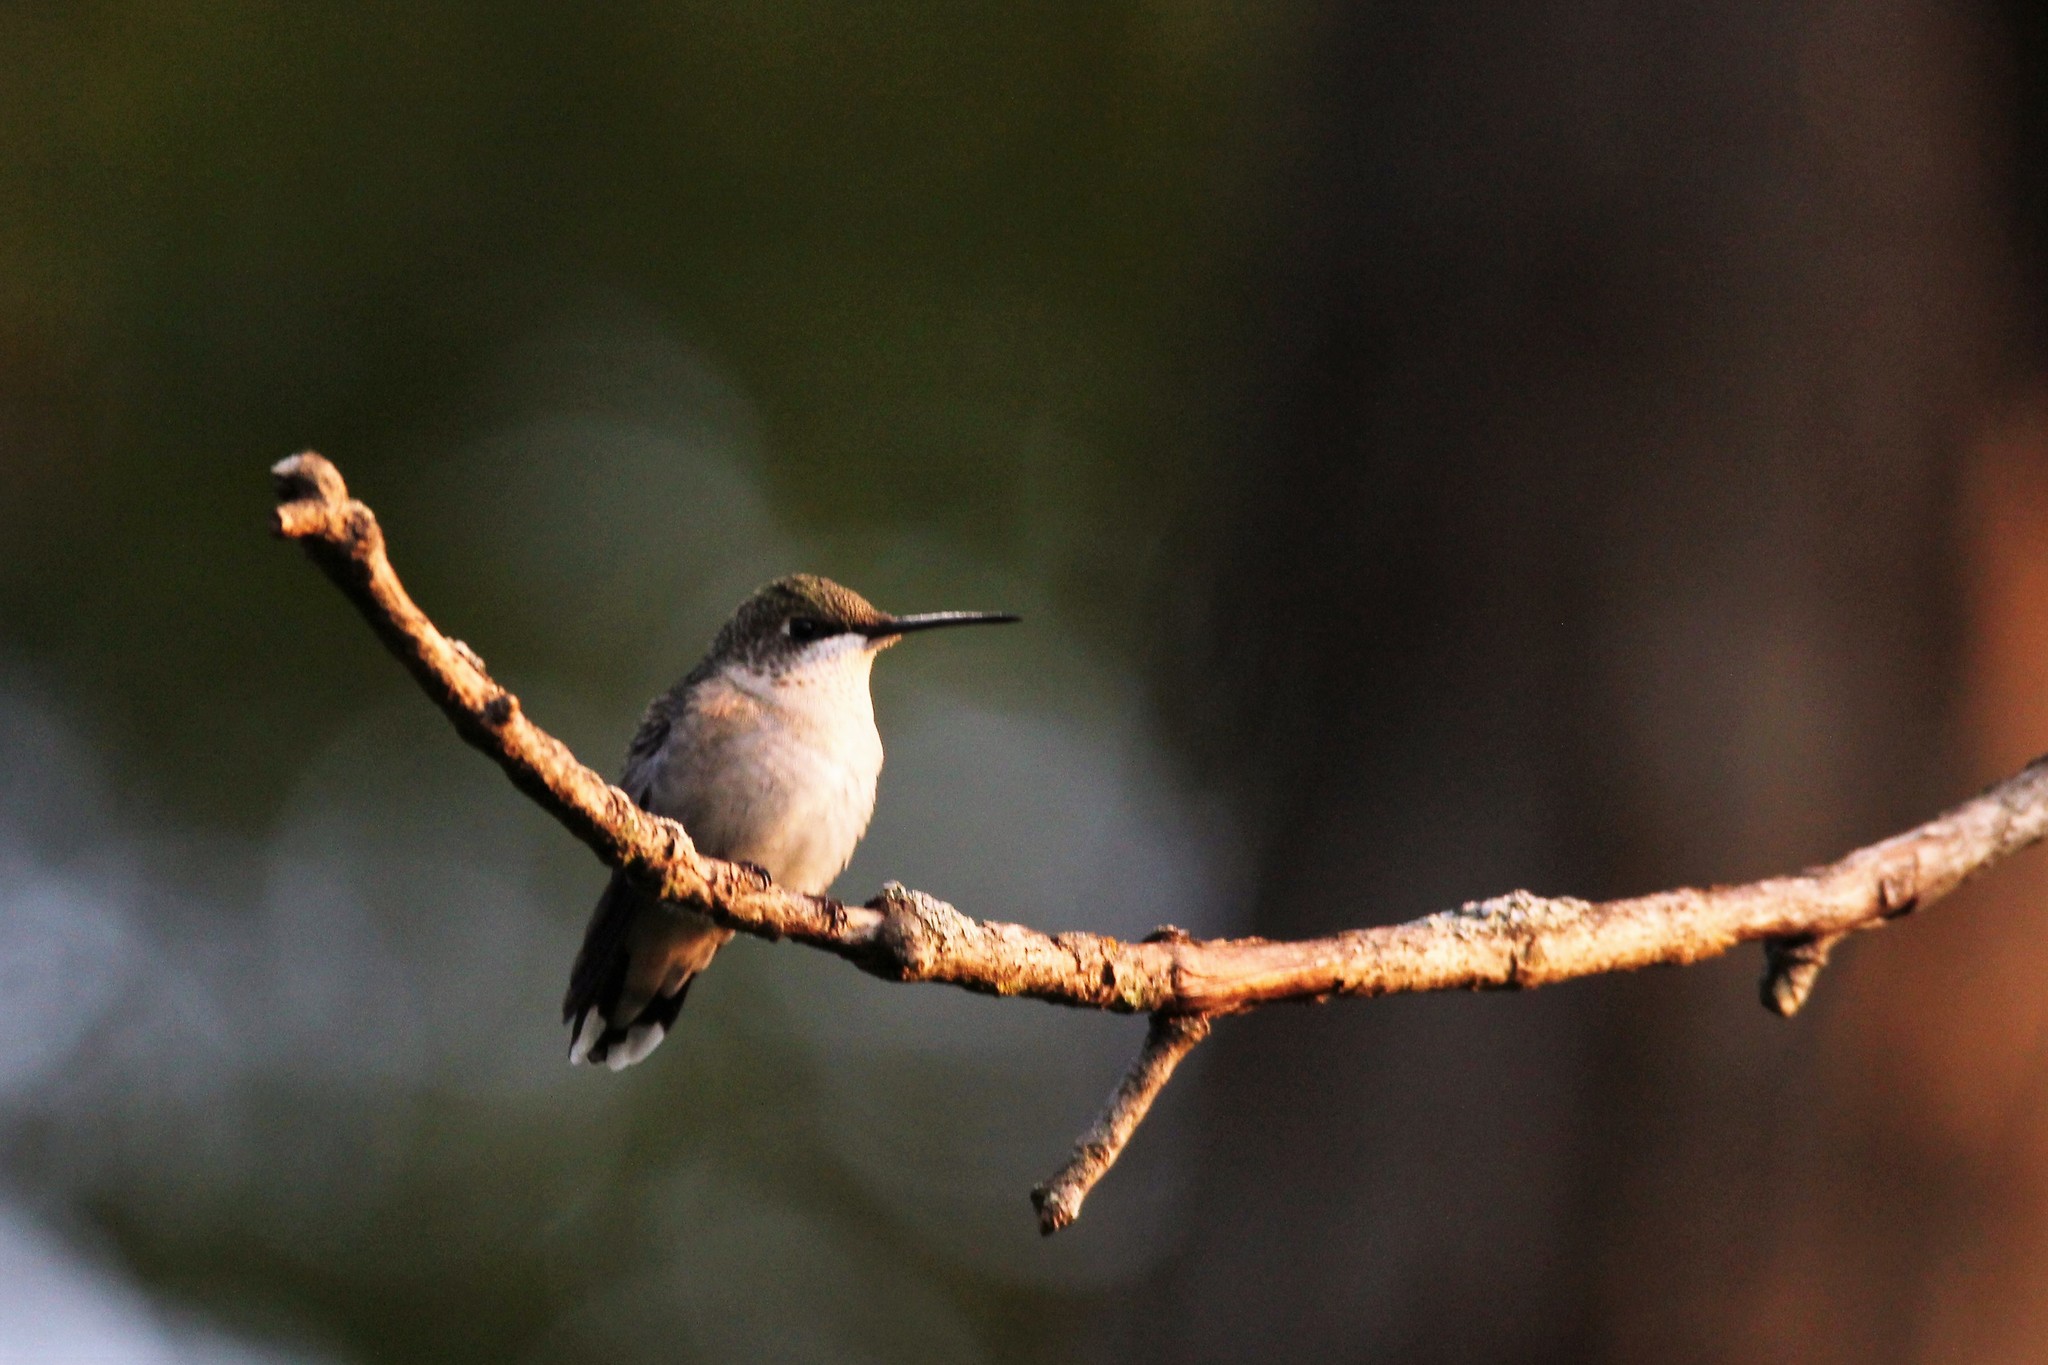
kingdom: Animalia
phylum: Chordata
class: Aves
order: Apodiformes
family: Trochilidae
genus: Archilochus
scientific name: Archilochus colubris
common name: Ruby-throated hummingbird
